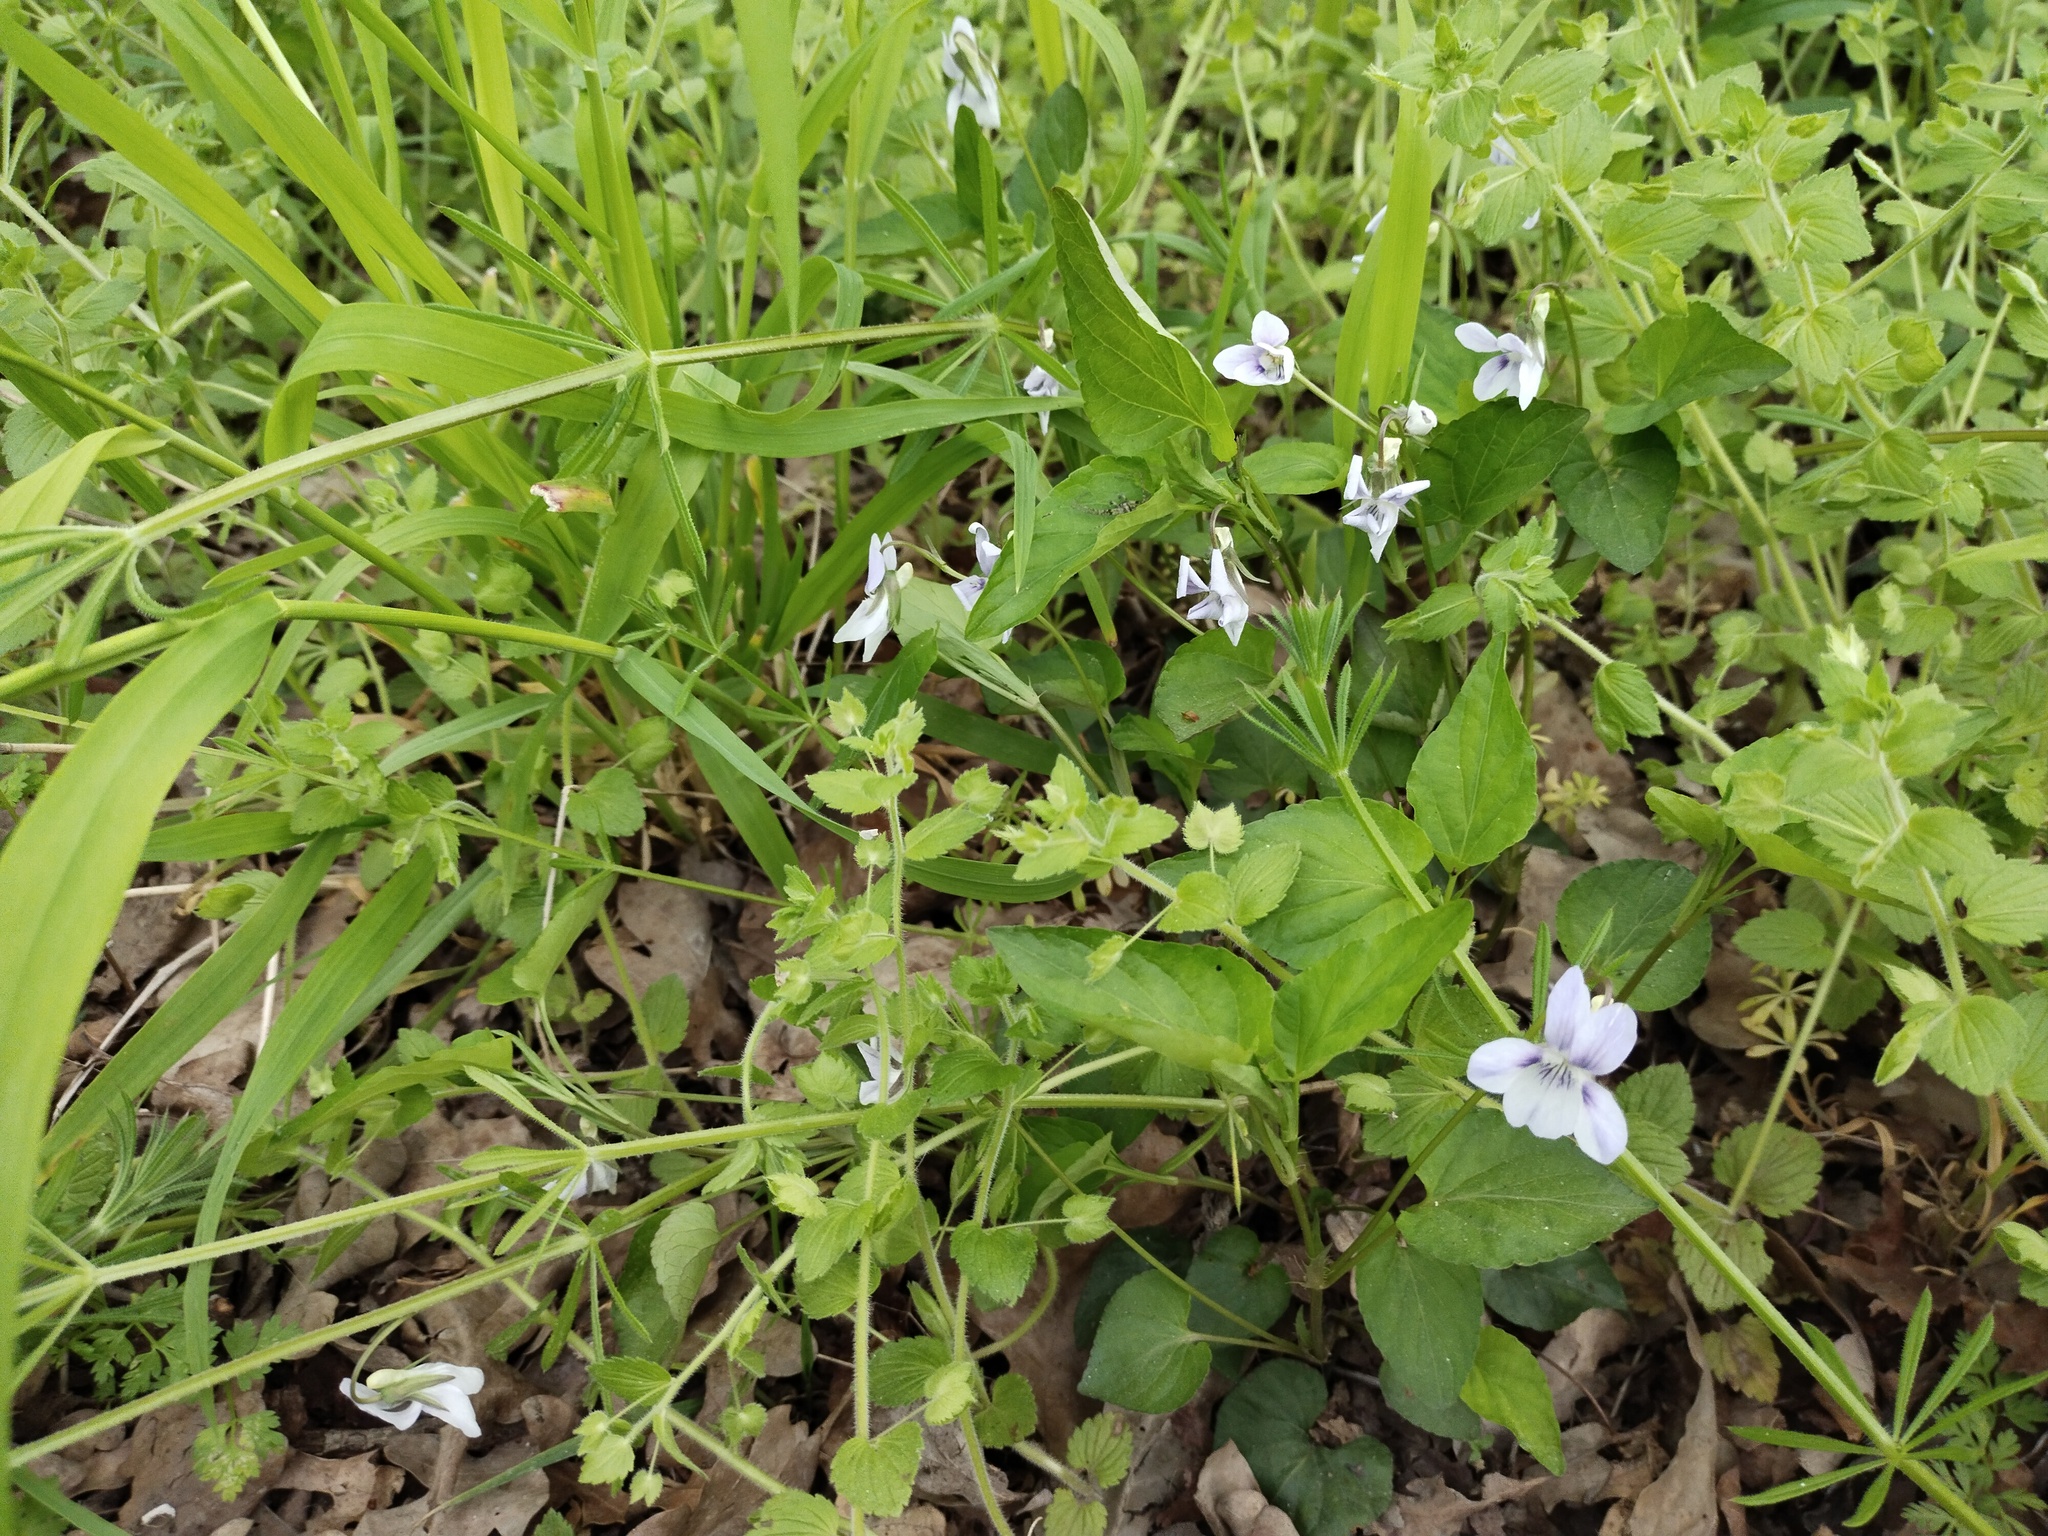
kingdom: Plantae
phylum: Tracheophyta
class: Magnoliopsida
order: Malpighiales
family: Violaceae
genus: Viola
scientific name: Viola sieheana
